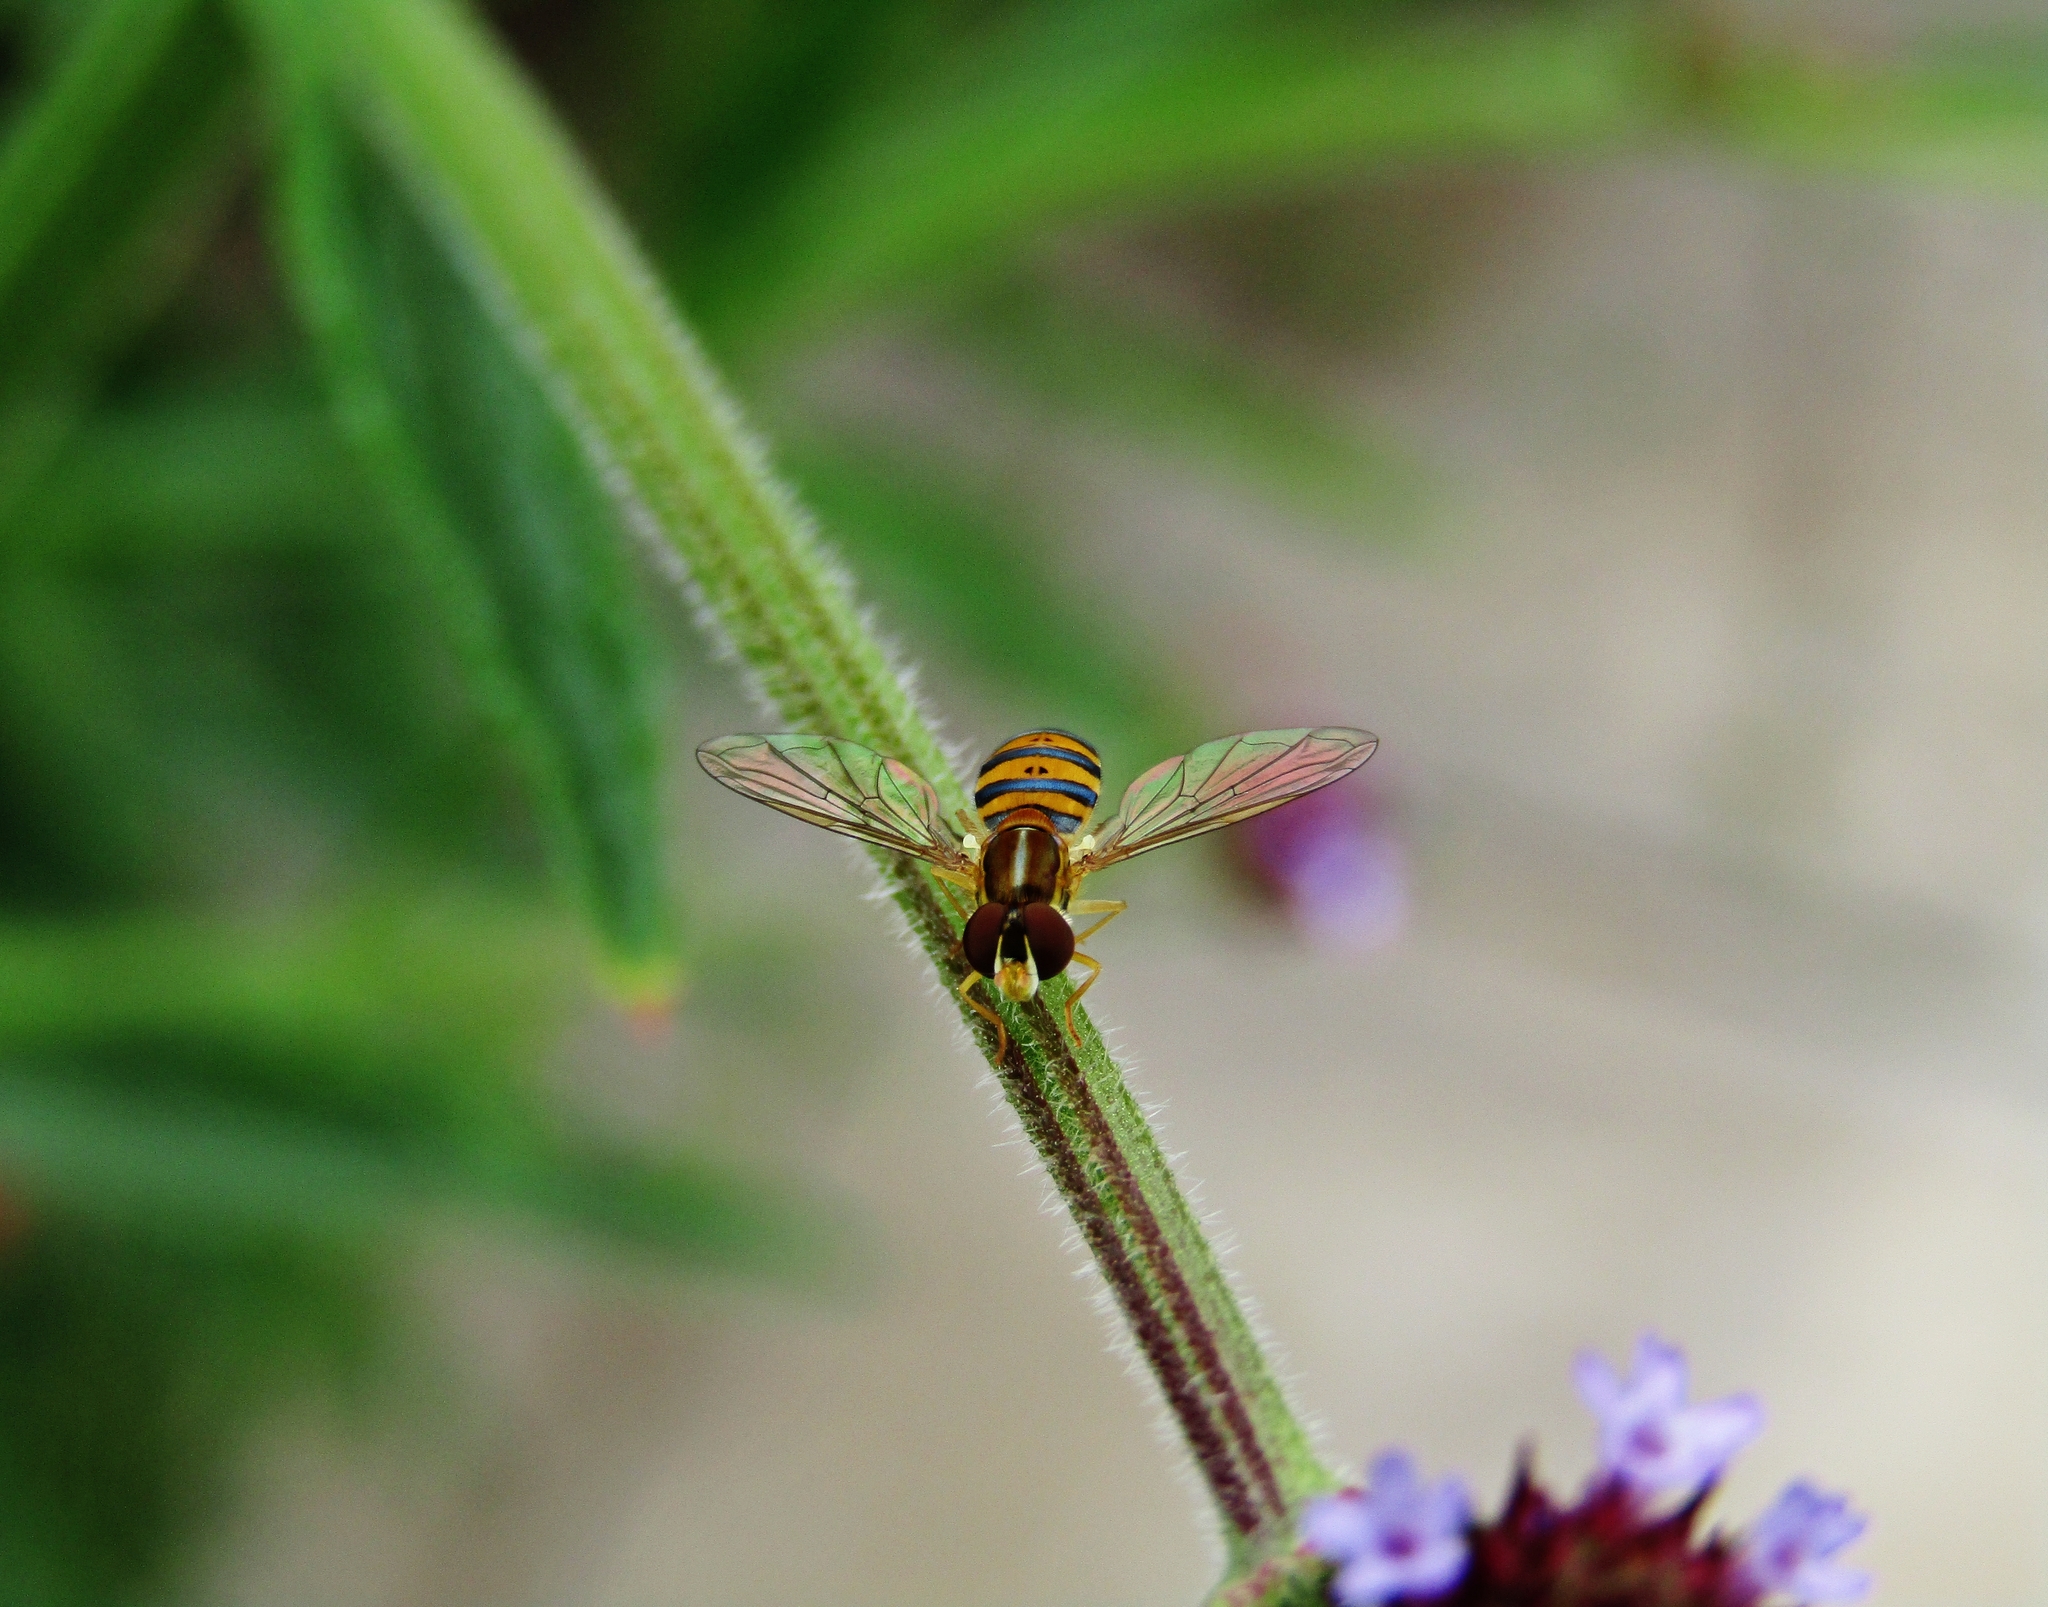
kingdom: Animalia
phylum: Arthropoda
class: Insecta
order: Diptera
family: Syrphidae
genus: Toxomerus
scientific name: Toxomerus
